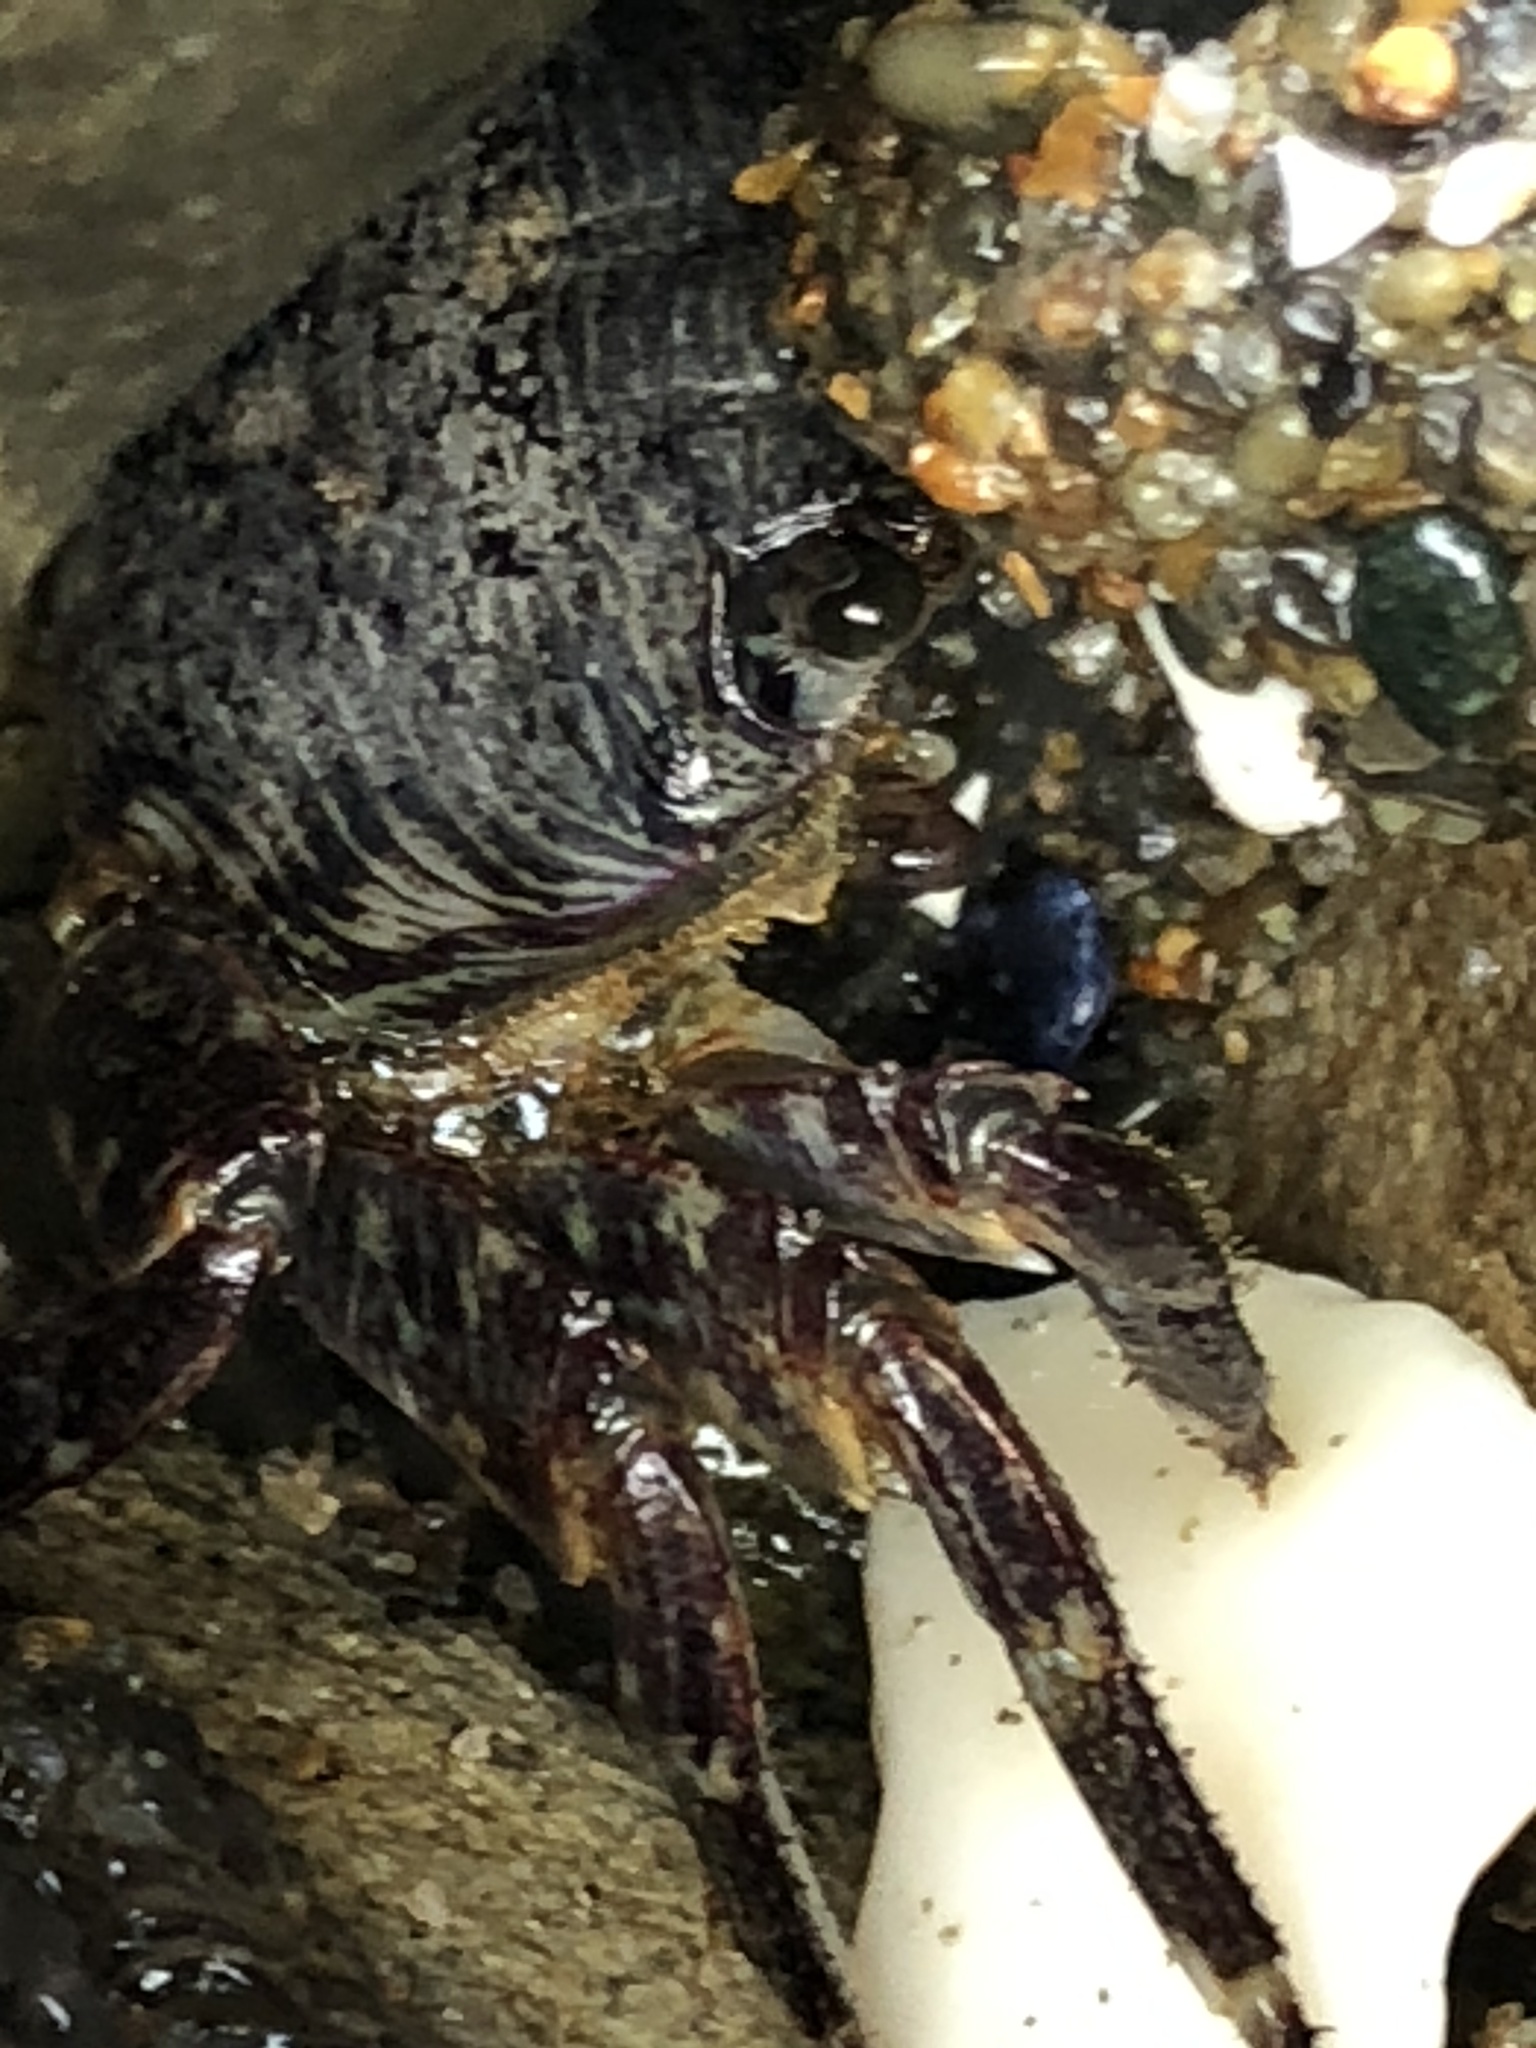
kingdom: Animalia
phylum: Arthropoda
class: Malacostraca
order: Decapoda
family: Grapsidae
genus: Pachygrapsus
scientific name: Pachygrapsus crassipes
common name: Striped shore crab
